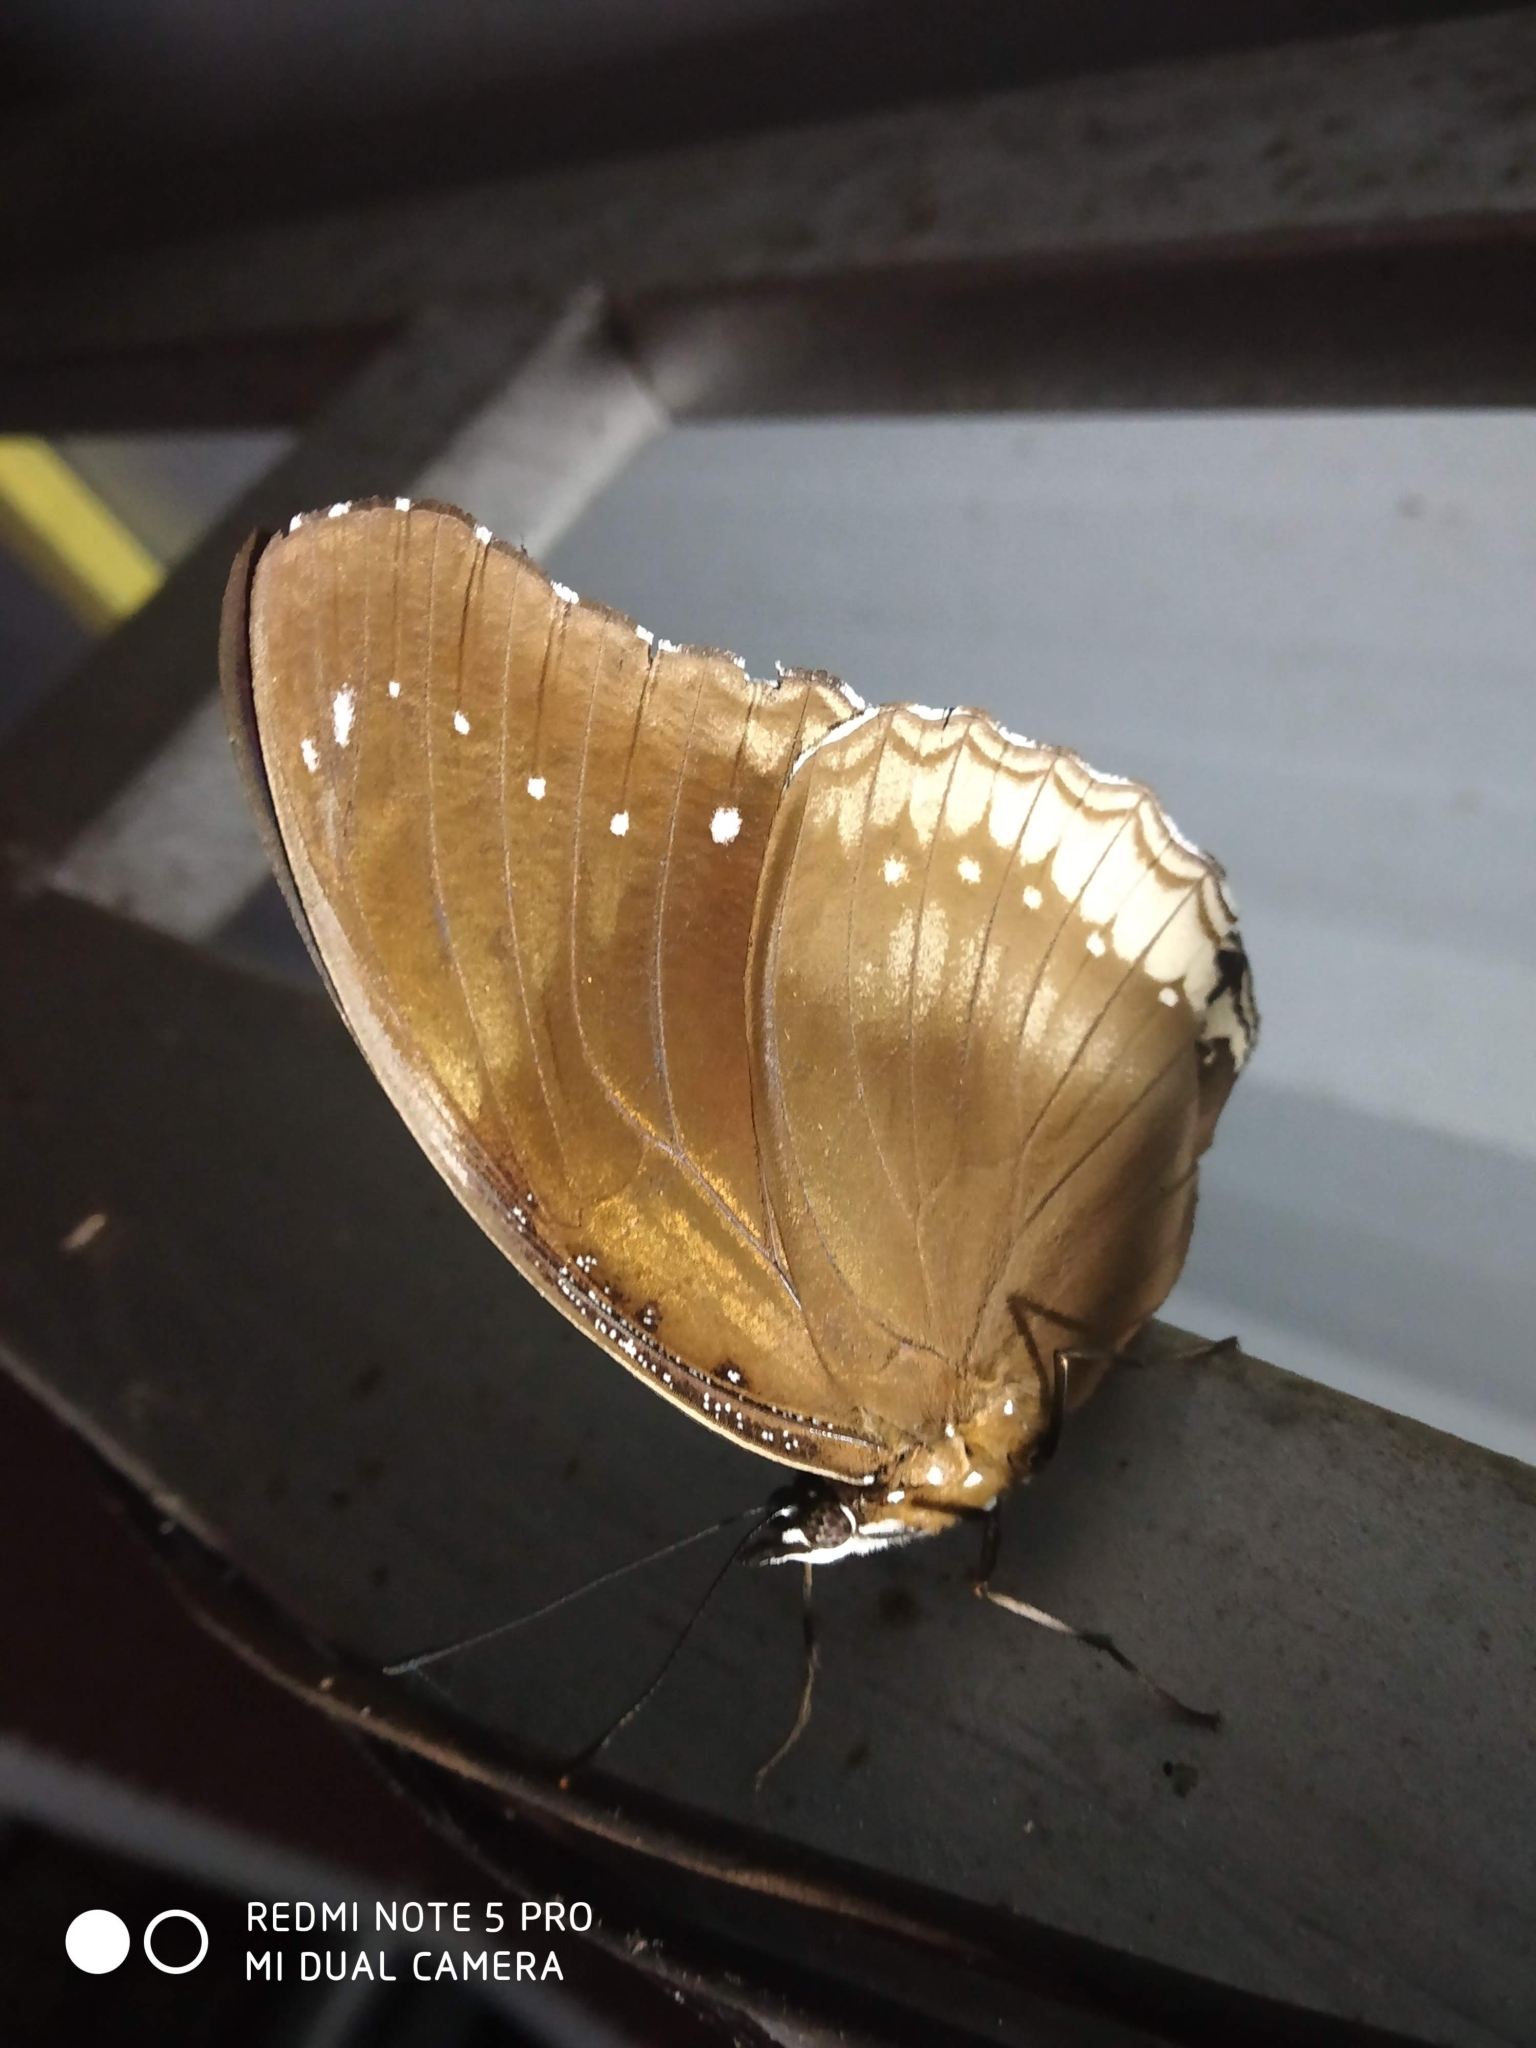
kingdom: Animalia
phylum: Arthropoda
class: Insecta
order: Lepidoptera
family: Nymphalidae
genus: Hypolimnas
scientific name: Hypolimnas bolina
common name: Great eggfly
